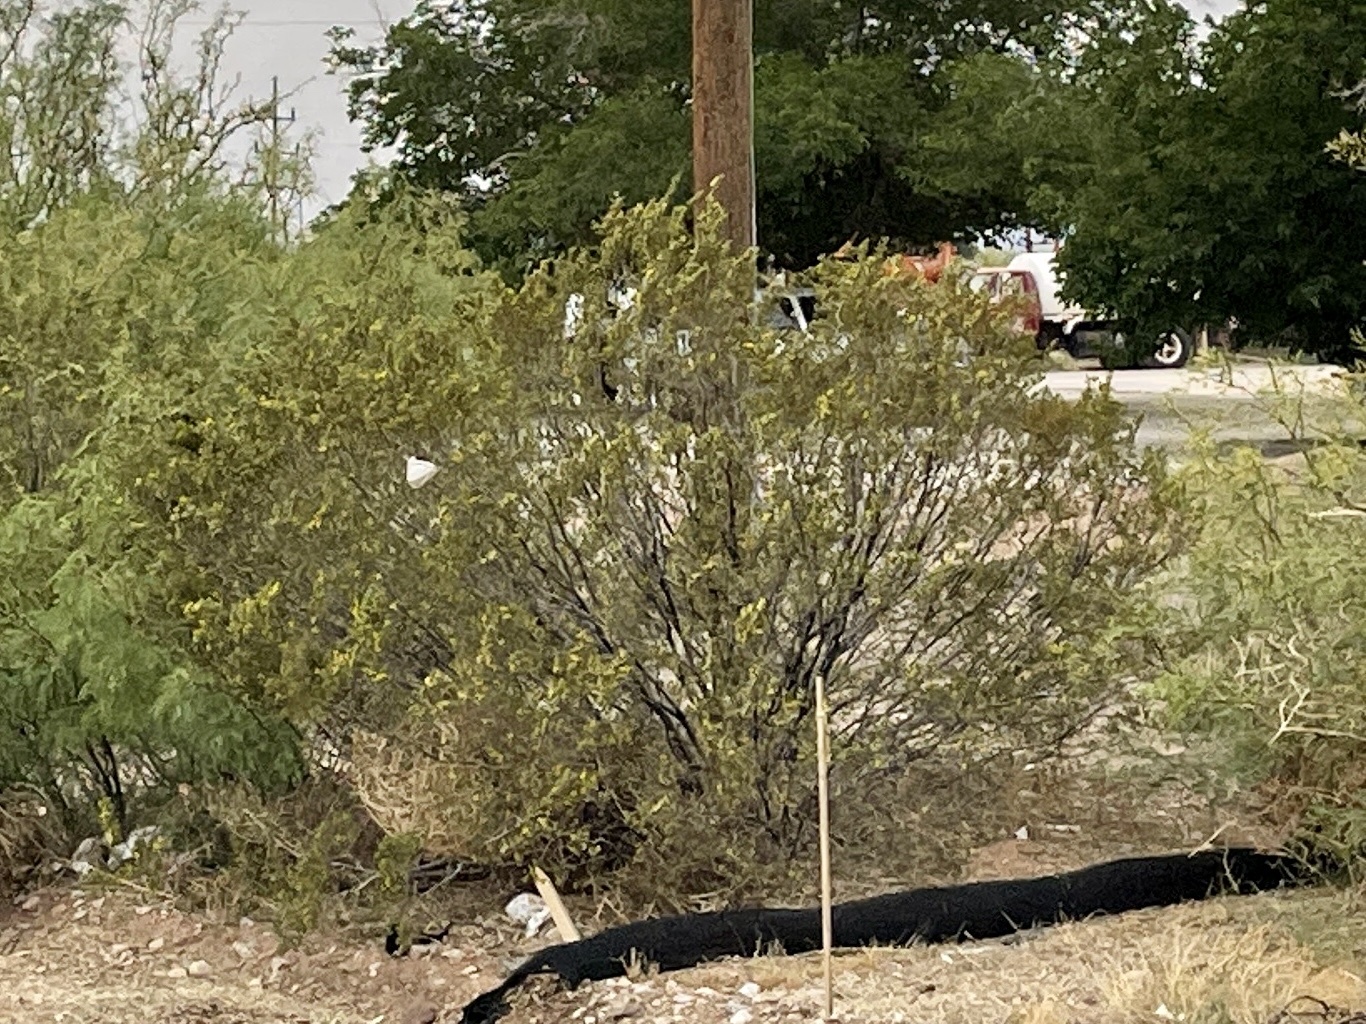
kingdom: Plantae
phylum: Tracheophyta
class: Magnoliopsida
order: Zygophyllales
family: Zygophyllaceae
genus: Larrea
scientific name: Larrea tridentata
